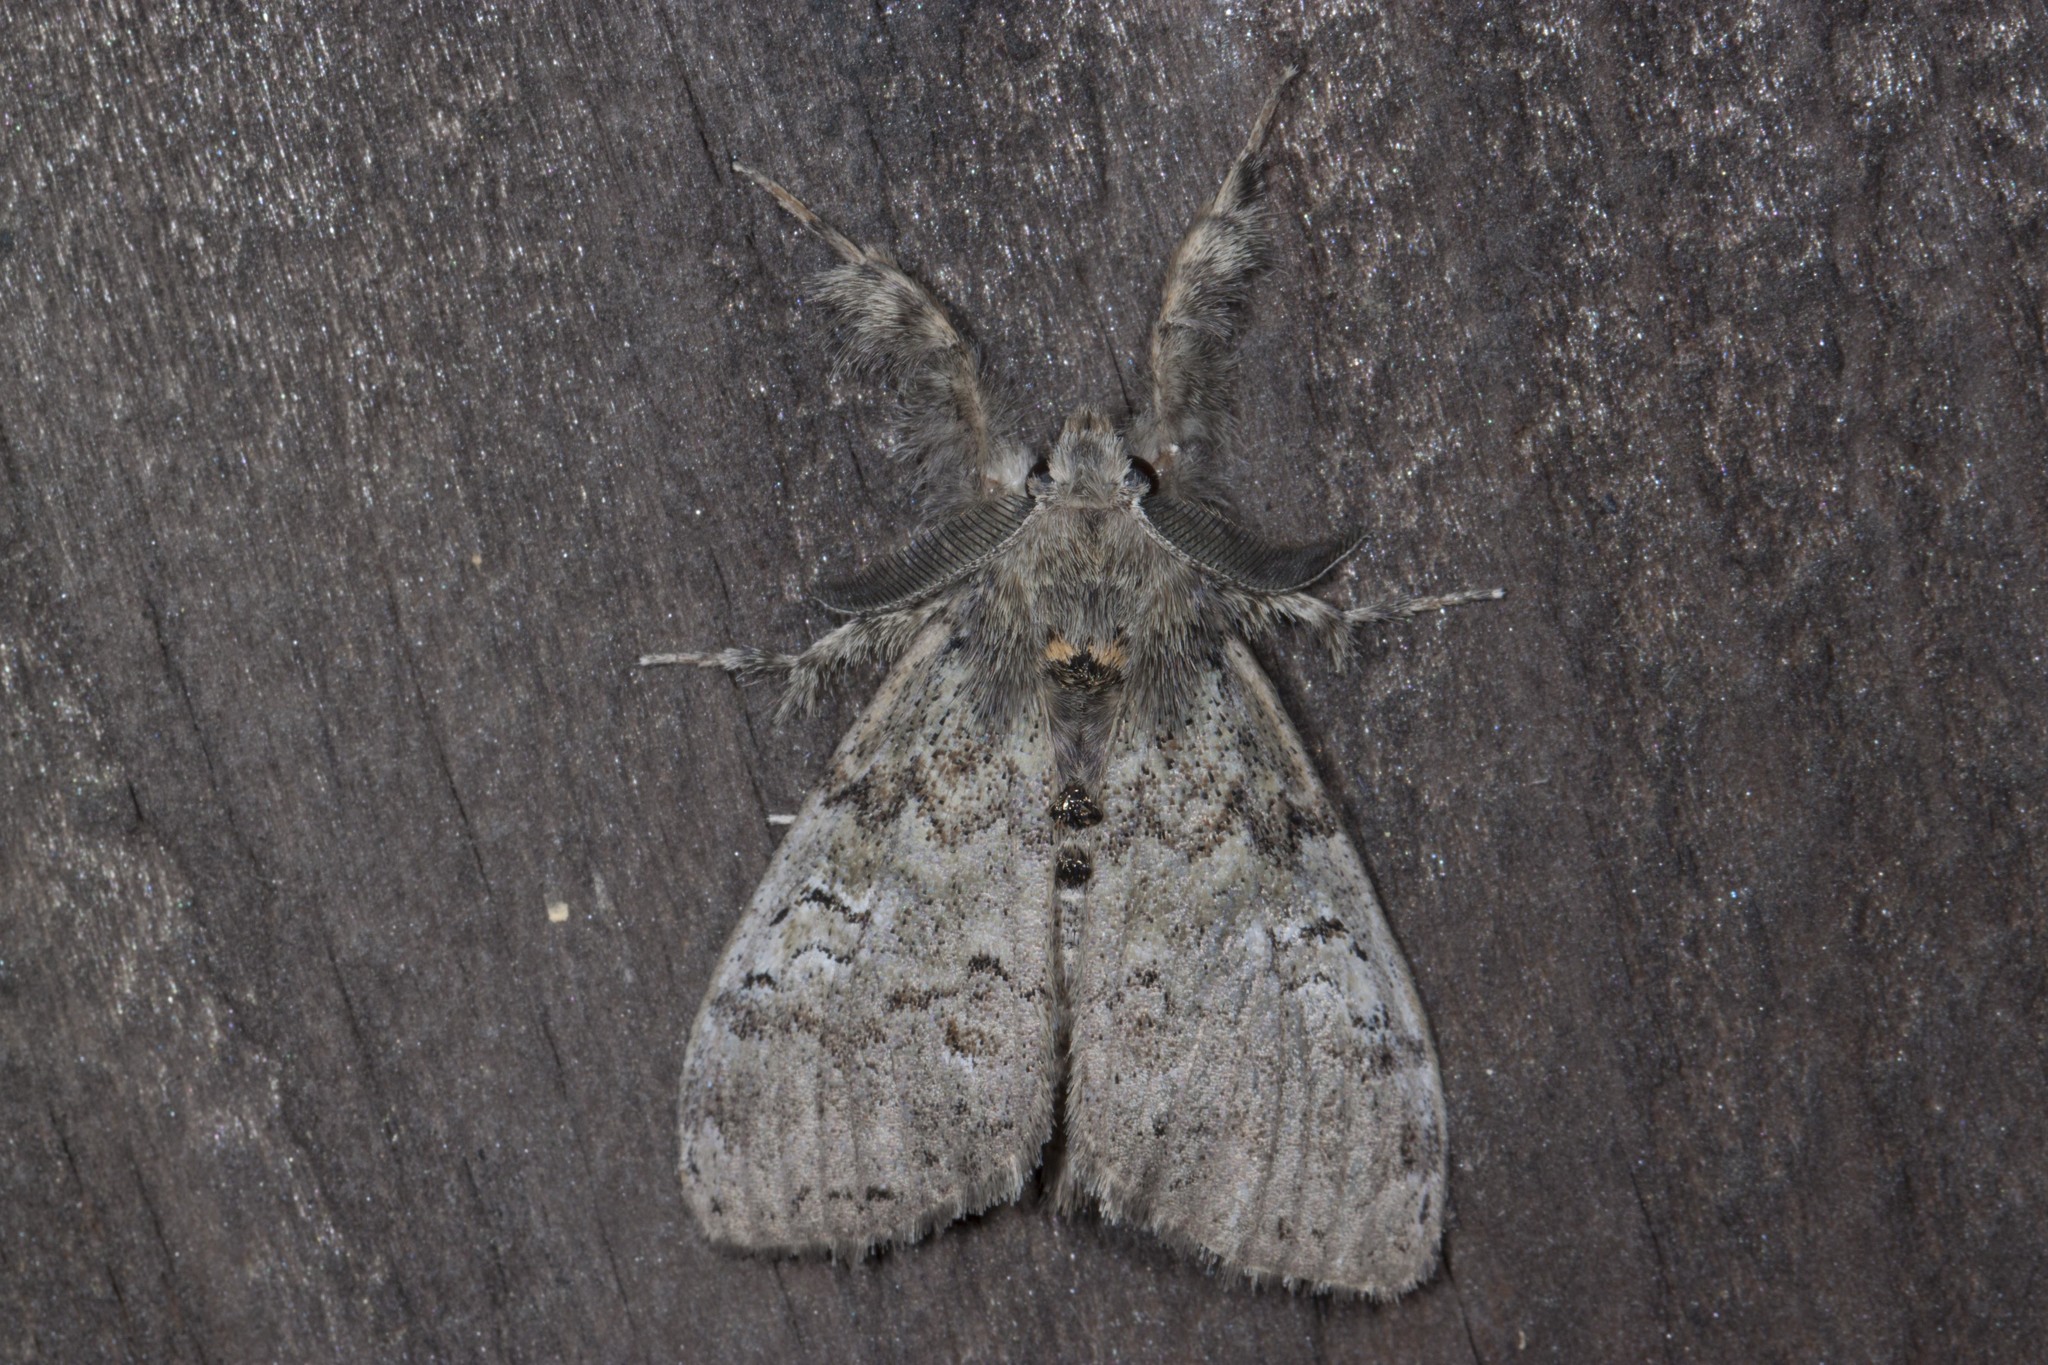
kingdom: Animalia
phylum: Arthropoda
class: Insecta
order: Lepidoptera
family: Erebidae
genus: Dasychira
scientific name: Dasychira vagans
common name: Variable tussock moth
